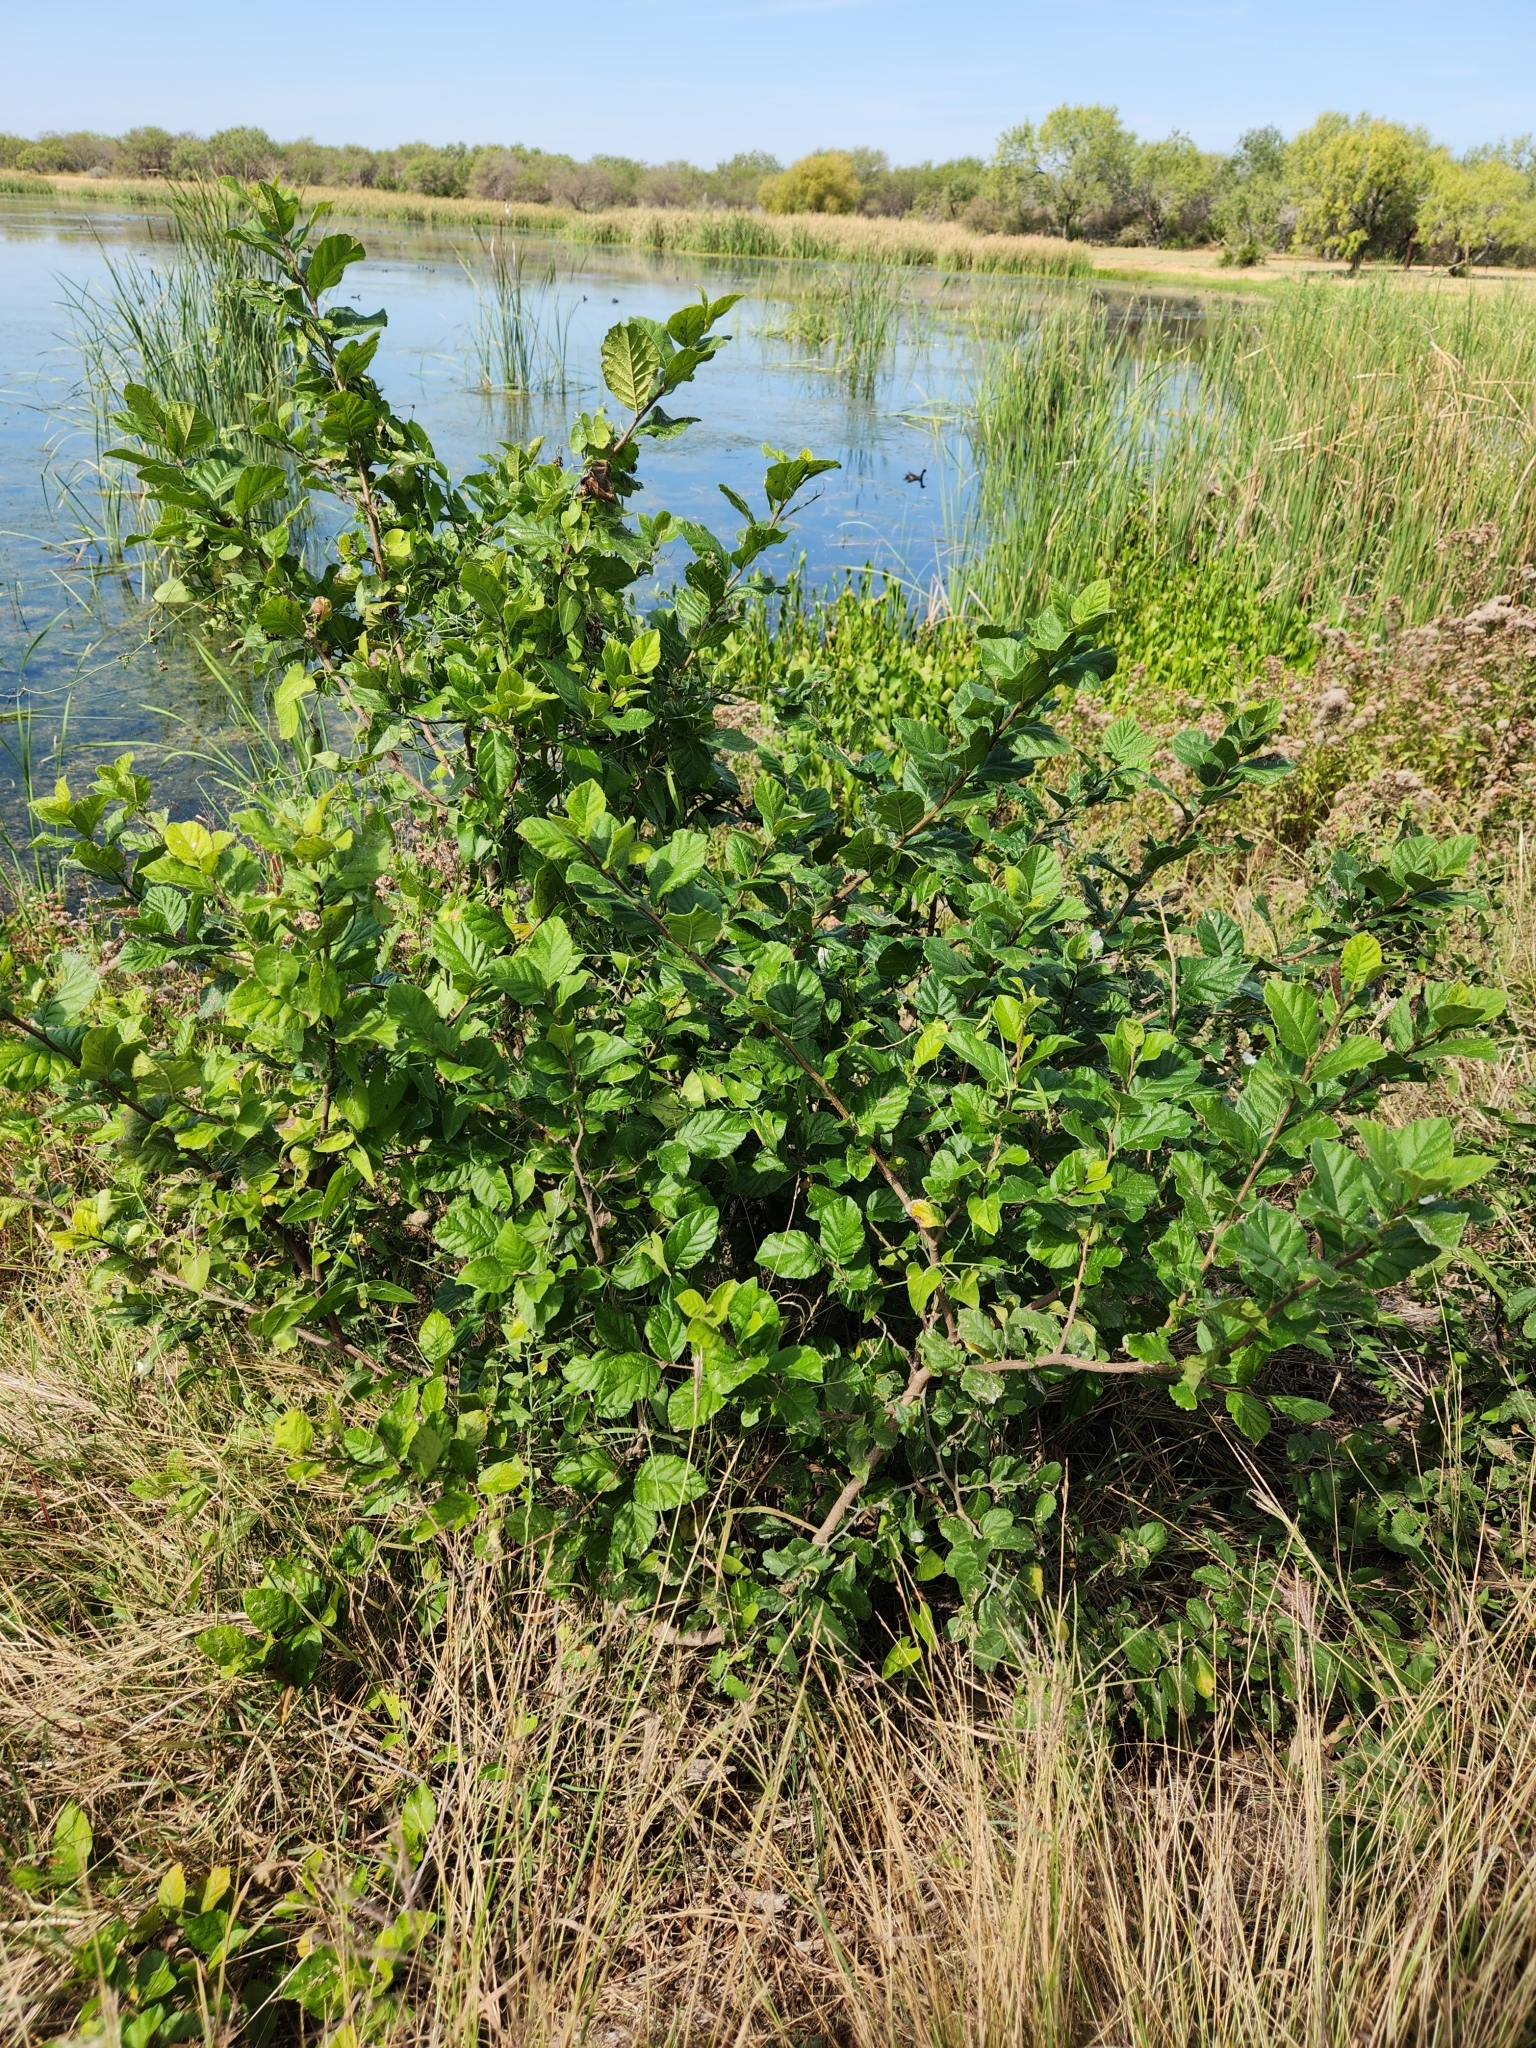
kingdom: Plantae
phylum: Tracheophyta
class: Magnoliopsida
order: Boraginales
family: Ehretiaceae
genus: Ehretia
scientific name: Ehretia anacua
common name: Sugarberry
